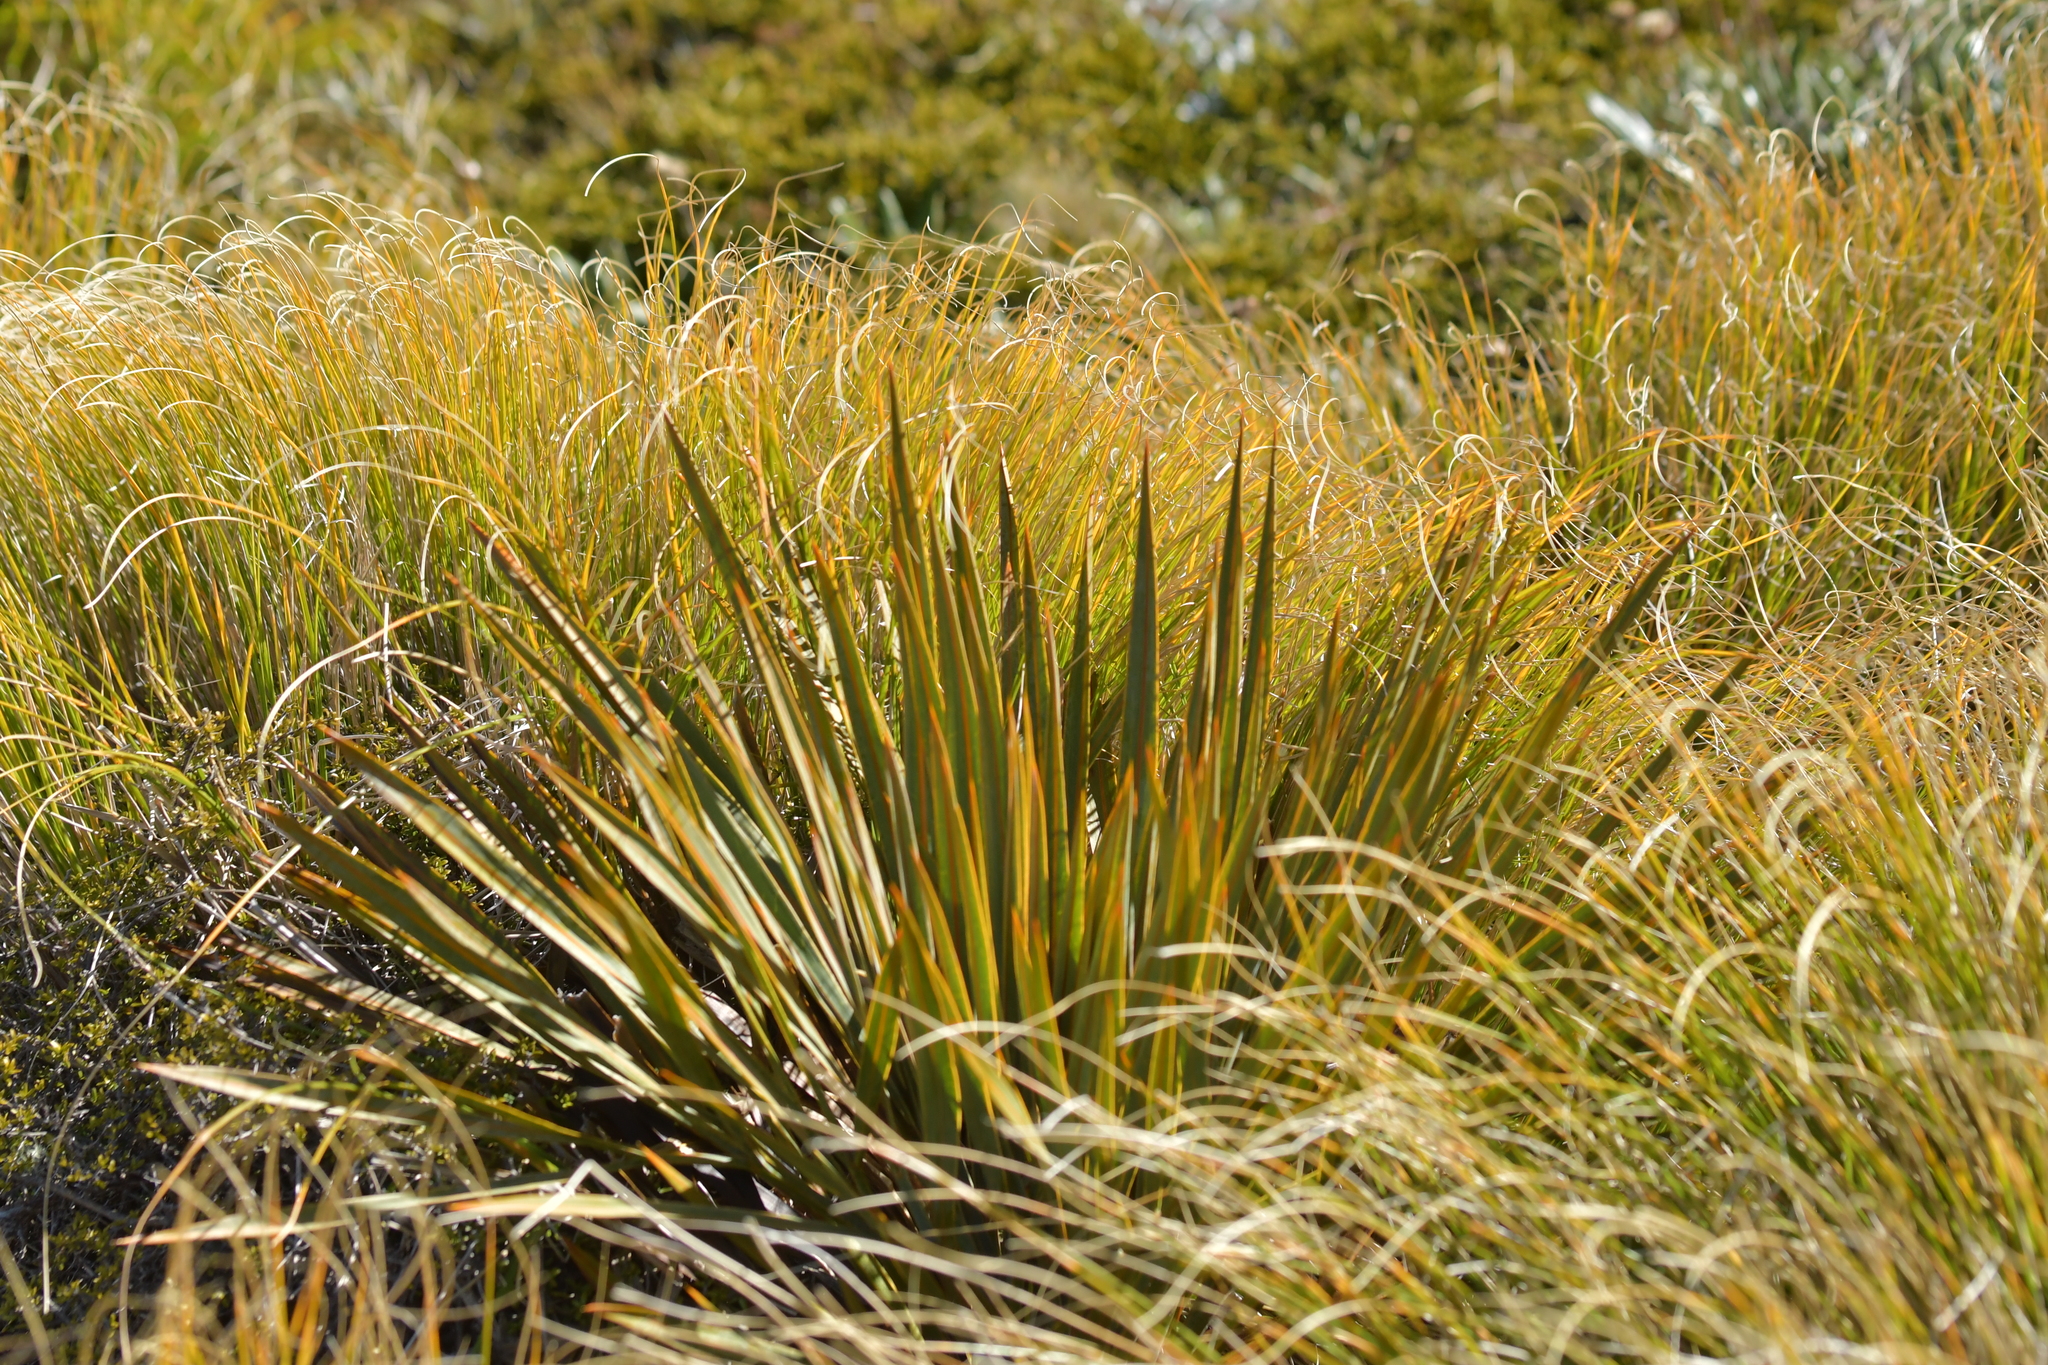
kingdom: Plantae
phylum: Tracheophyta
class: Magnoliopsida
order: Apiales
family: Apiaceae
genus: Aciphylla
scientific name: Aciphylla colensoi
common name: Colenso's spaniard
